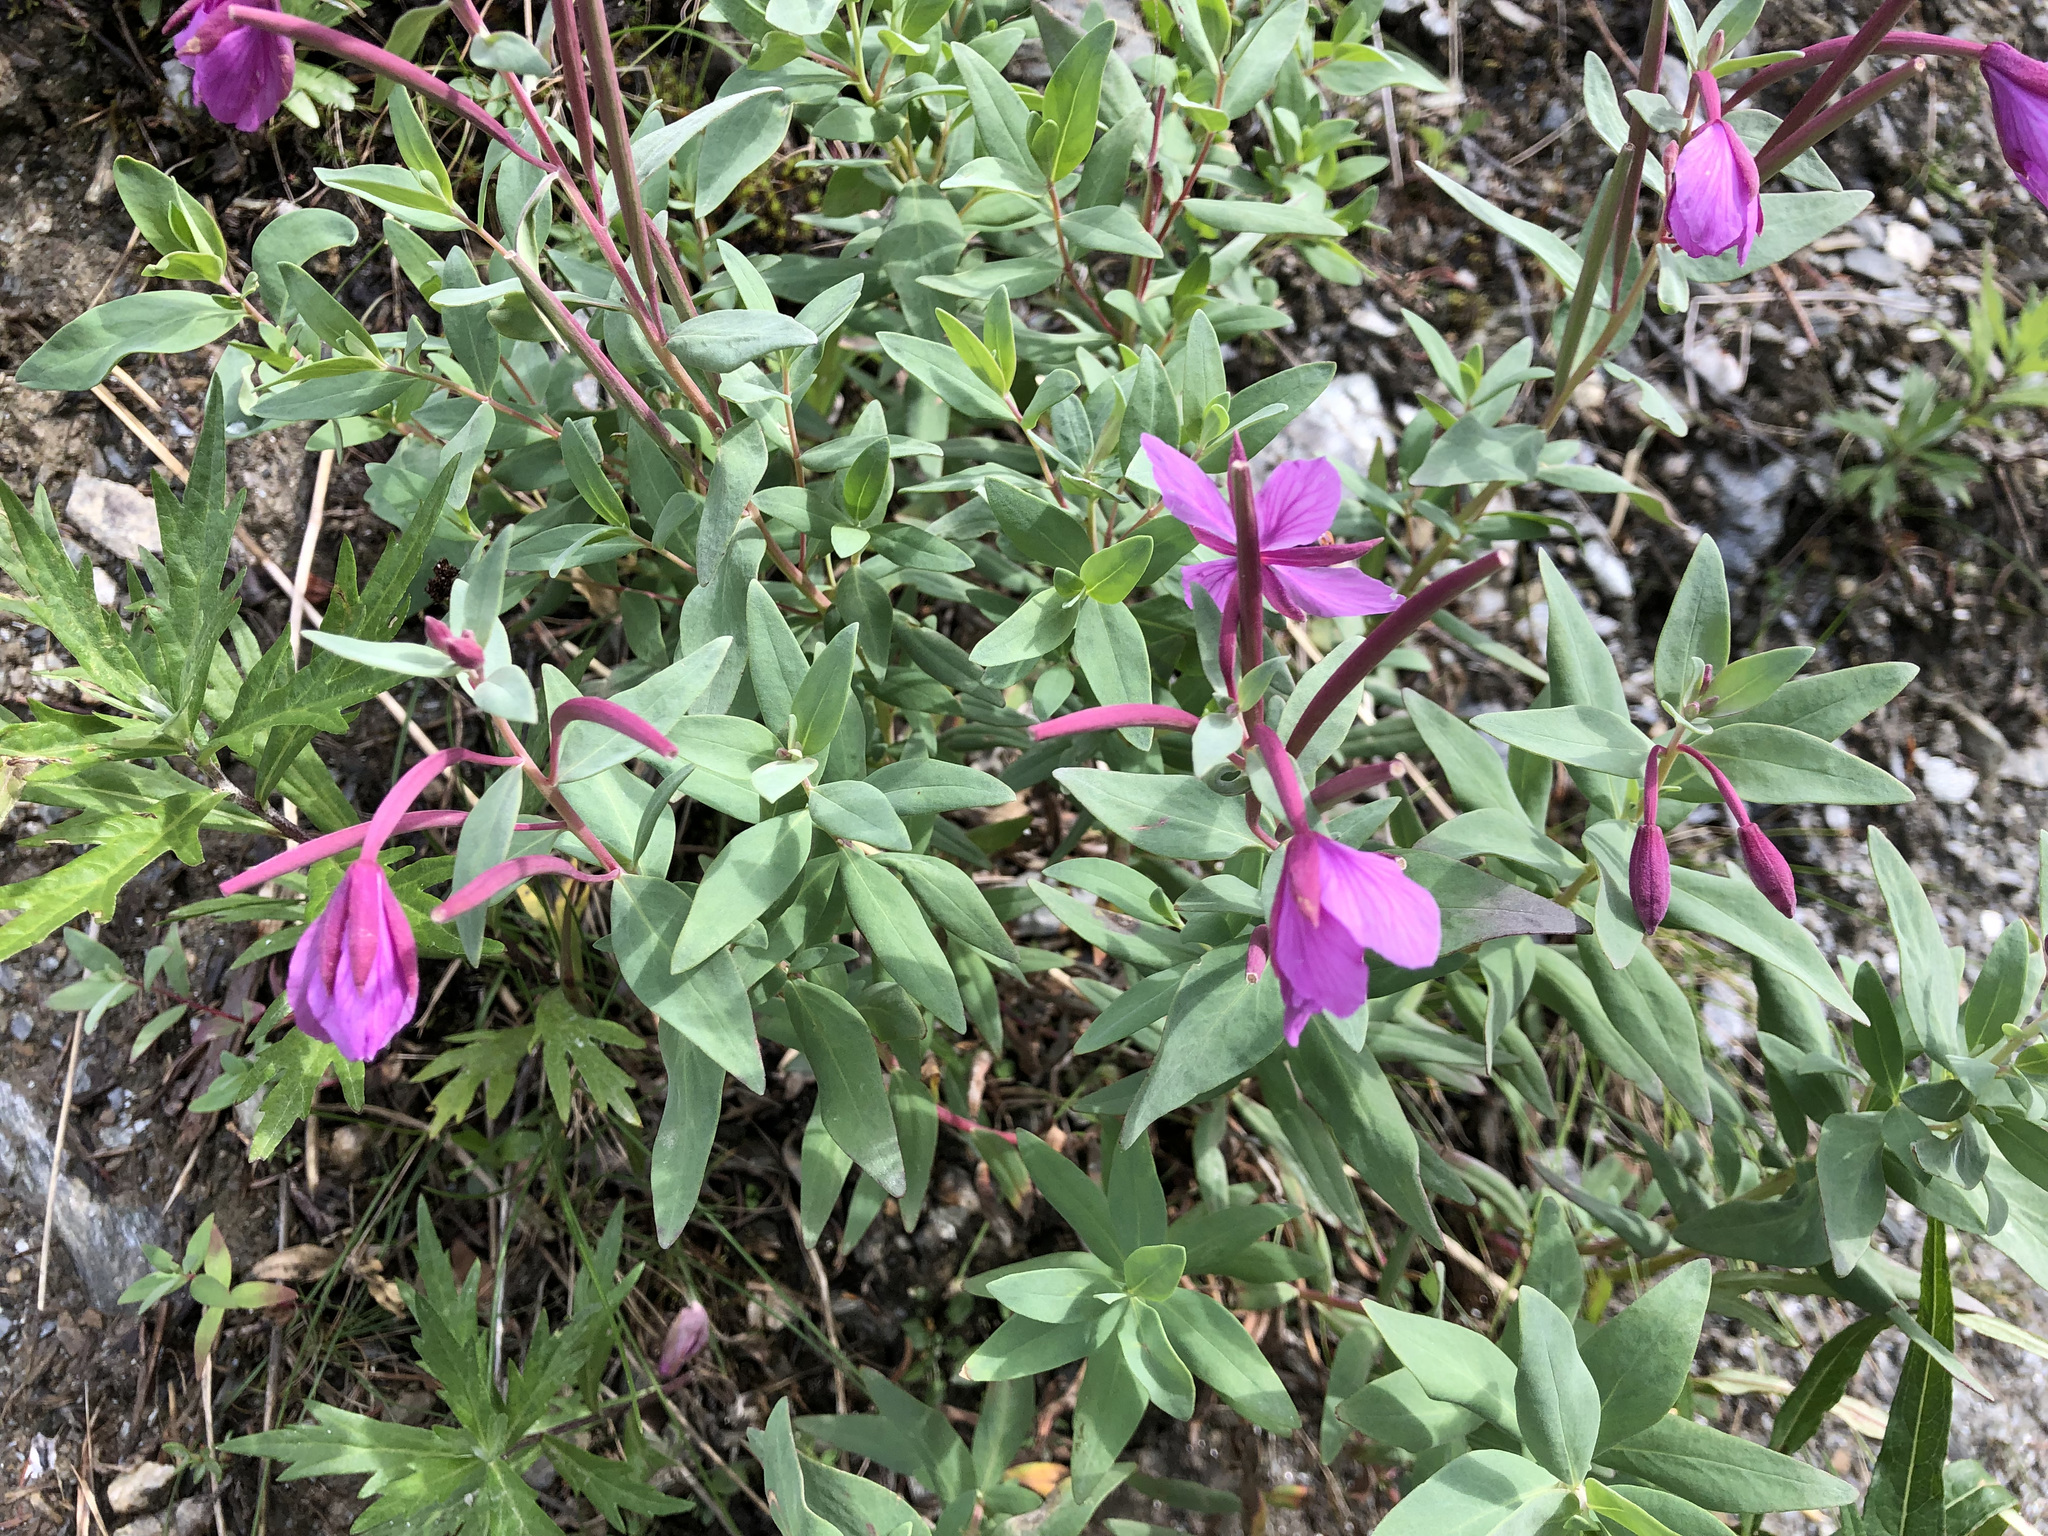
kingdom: Plantae
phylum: Tracheophyta
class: Magnoliopsida
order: Myrtales
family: Onagraceae
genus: Chamaenerion
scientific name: Chamaenerion latifolium
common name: Dwarf fireweed
